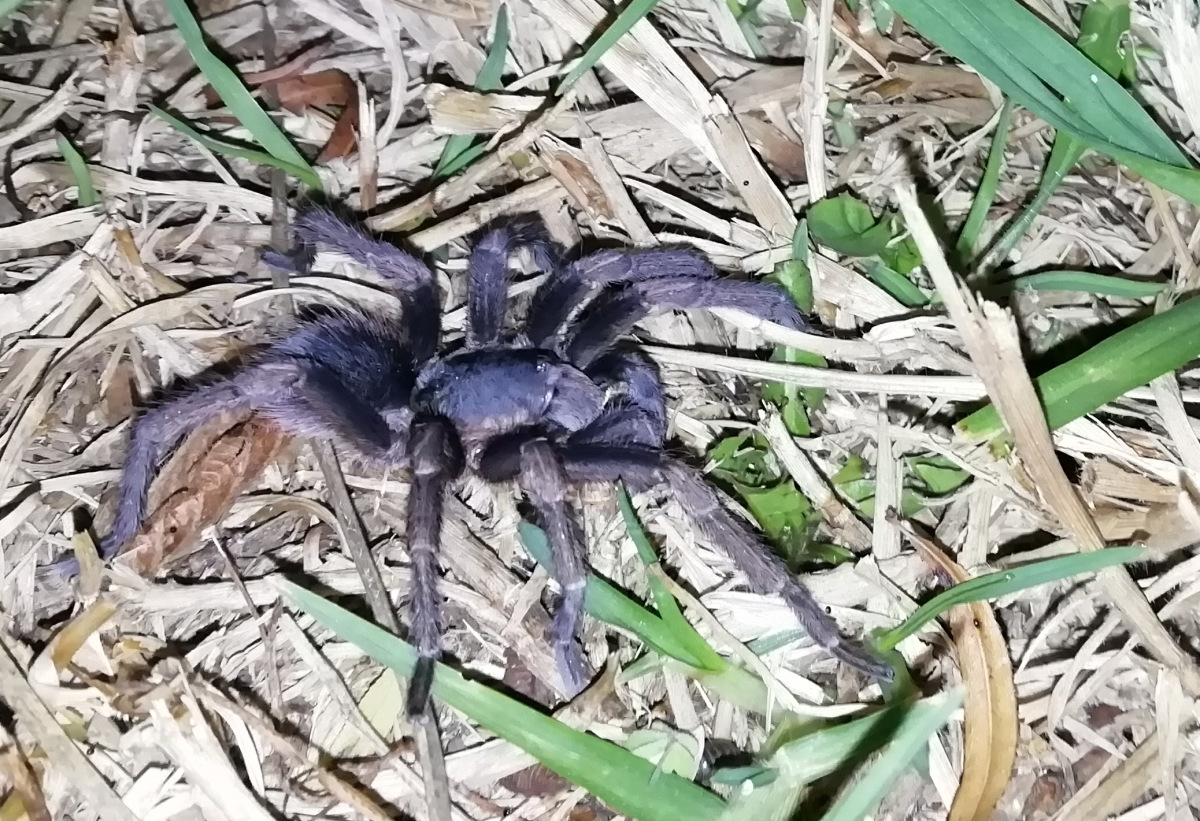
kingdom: Animalia
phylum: Arthropoda
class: Arachnida
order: Araneae
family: Theraphosidae
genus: Cyclosternum
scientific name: Cyclosternum schmardae
